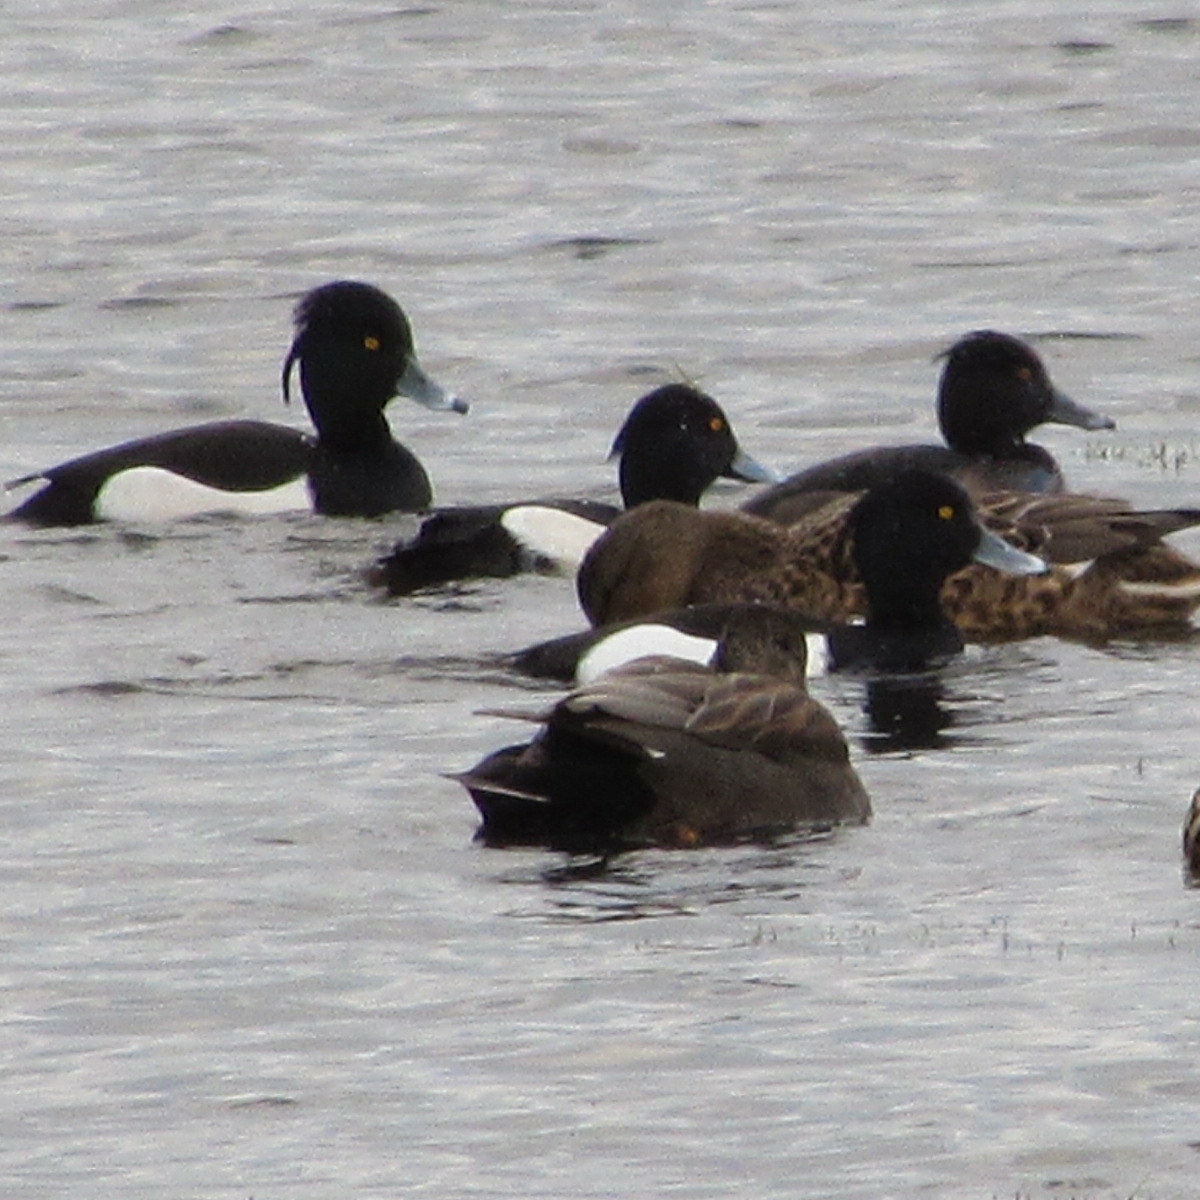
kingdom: Animalia
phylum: Chordata
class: Aves
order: Anseriformes
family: Anatidae
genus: Aythya
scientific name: Aythya fuligula
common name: Tufted duck
